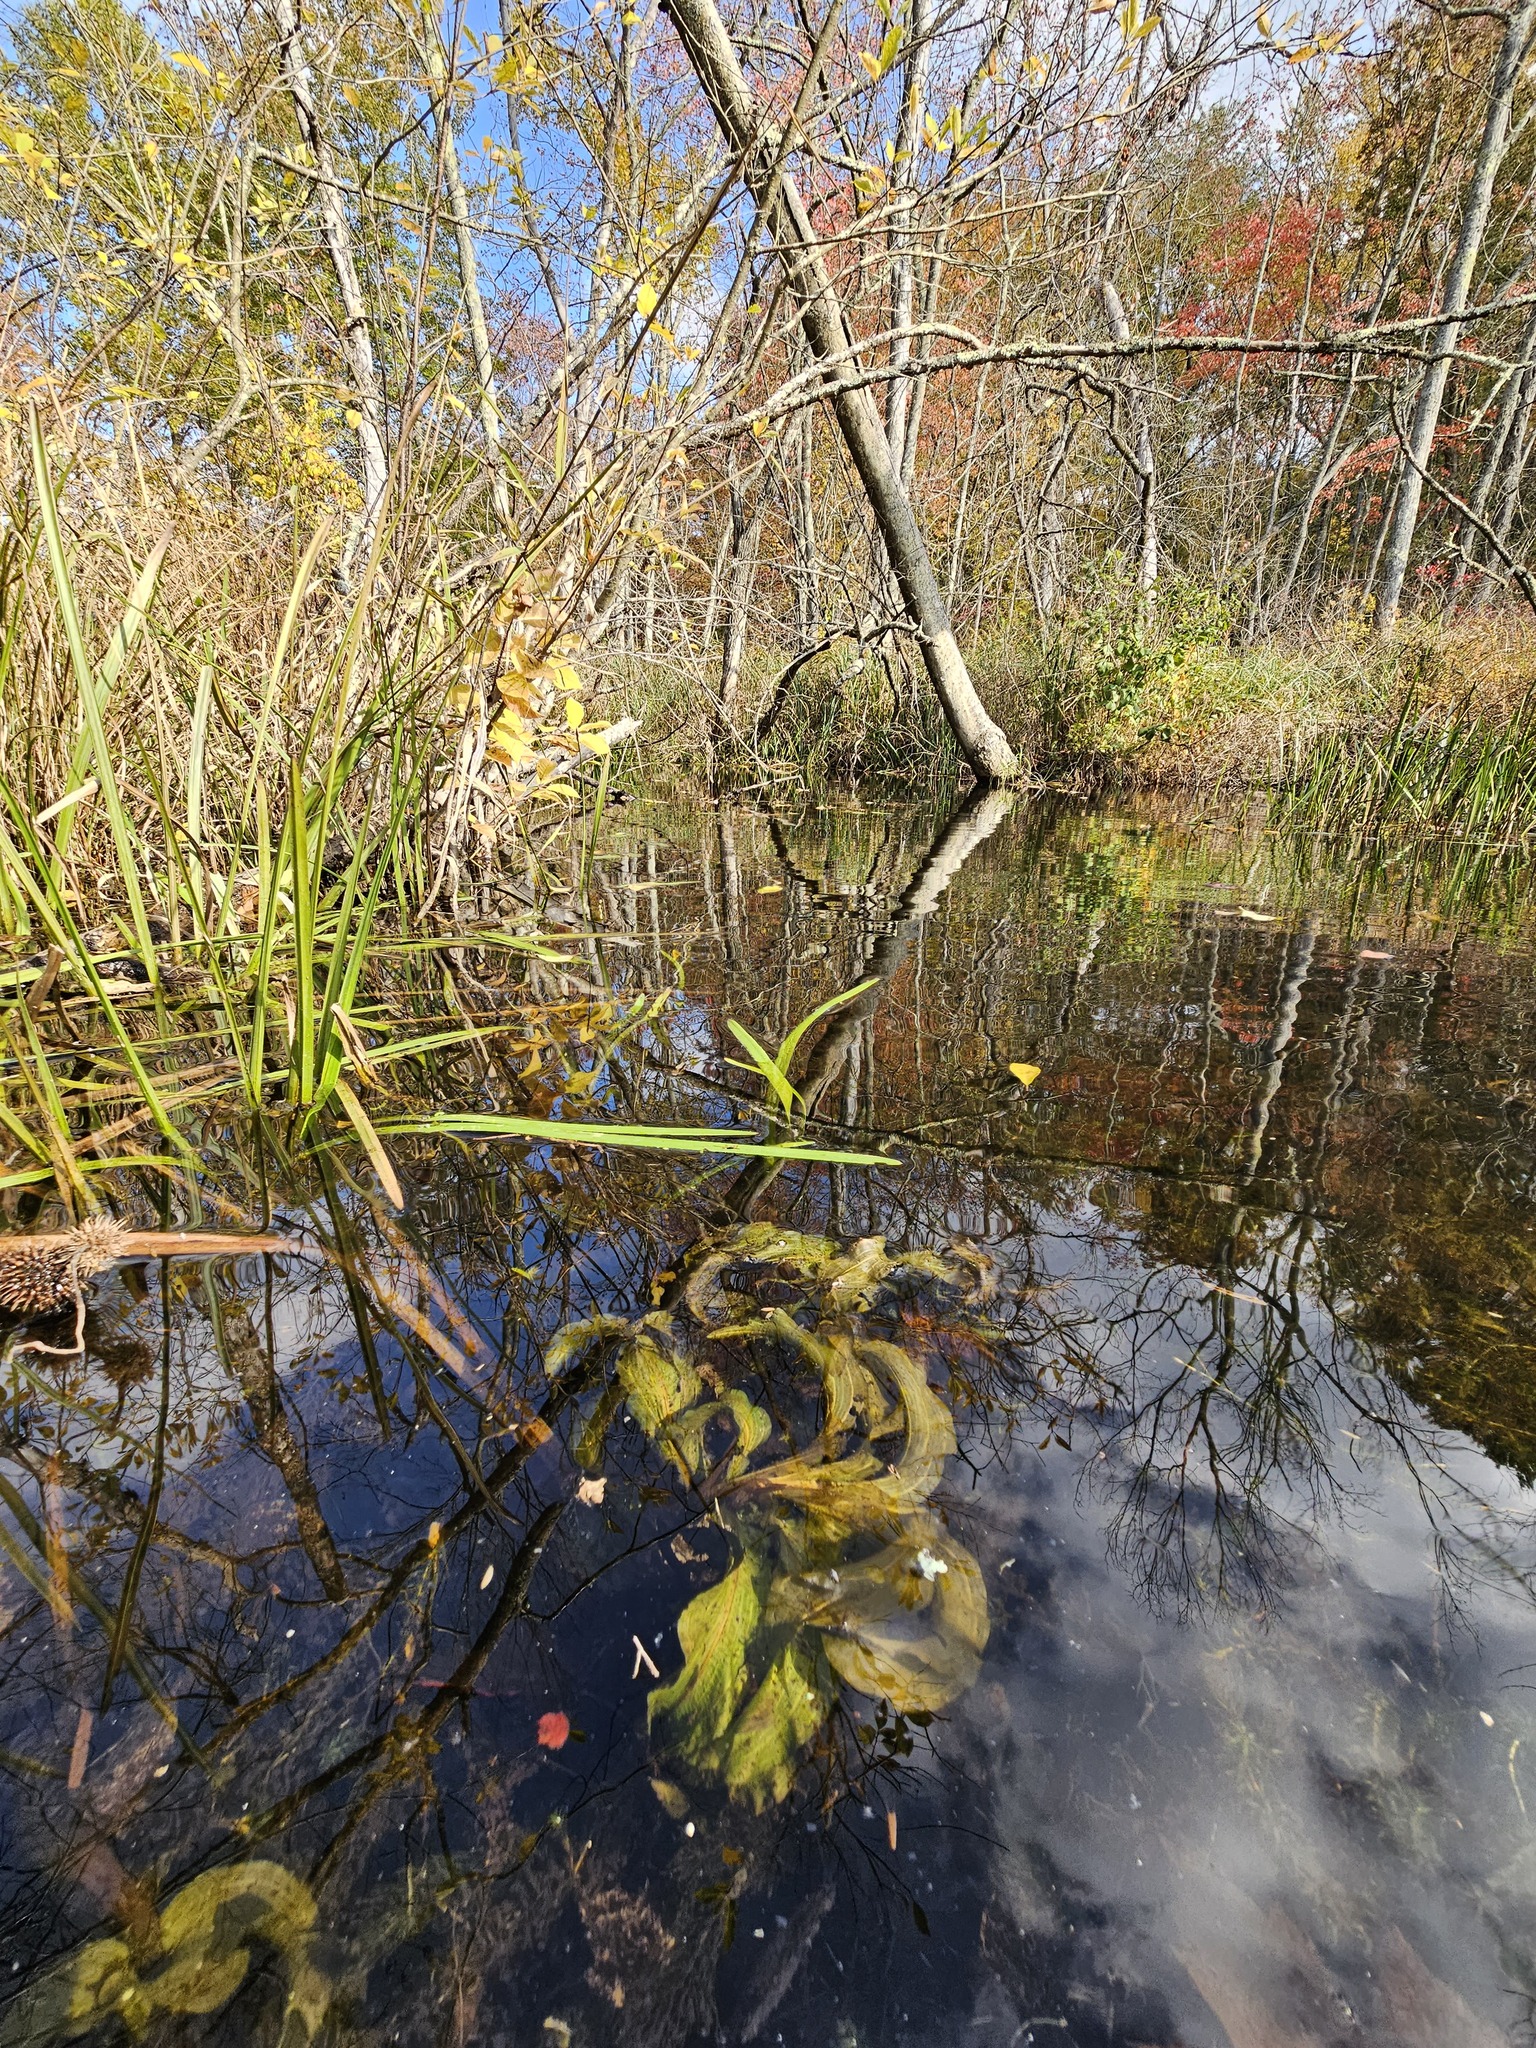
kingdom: Plantae
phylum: Tracheophyta
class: Liliopsida
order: Alismatales
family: Potamogetonaceae
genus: Potamogeton
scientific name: Potamogeton amplifolius
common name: Broad-leaved pondweed
